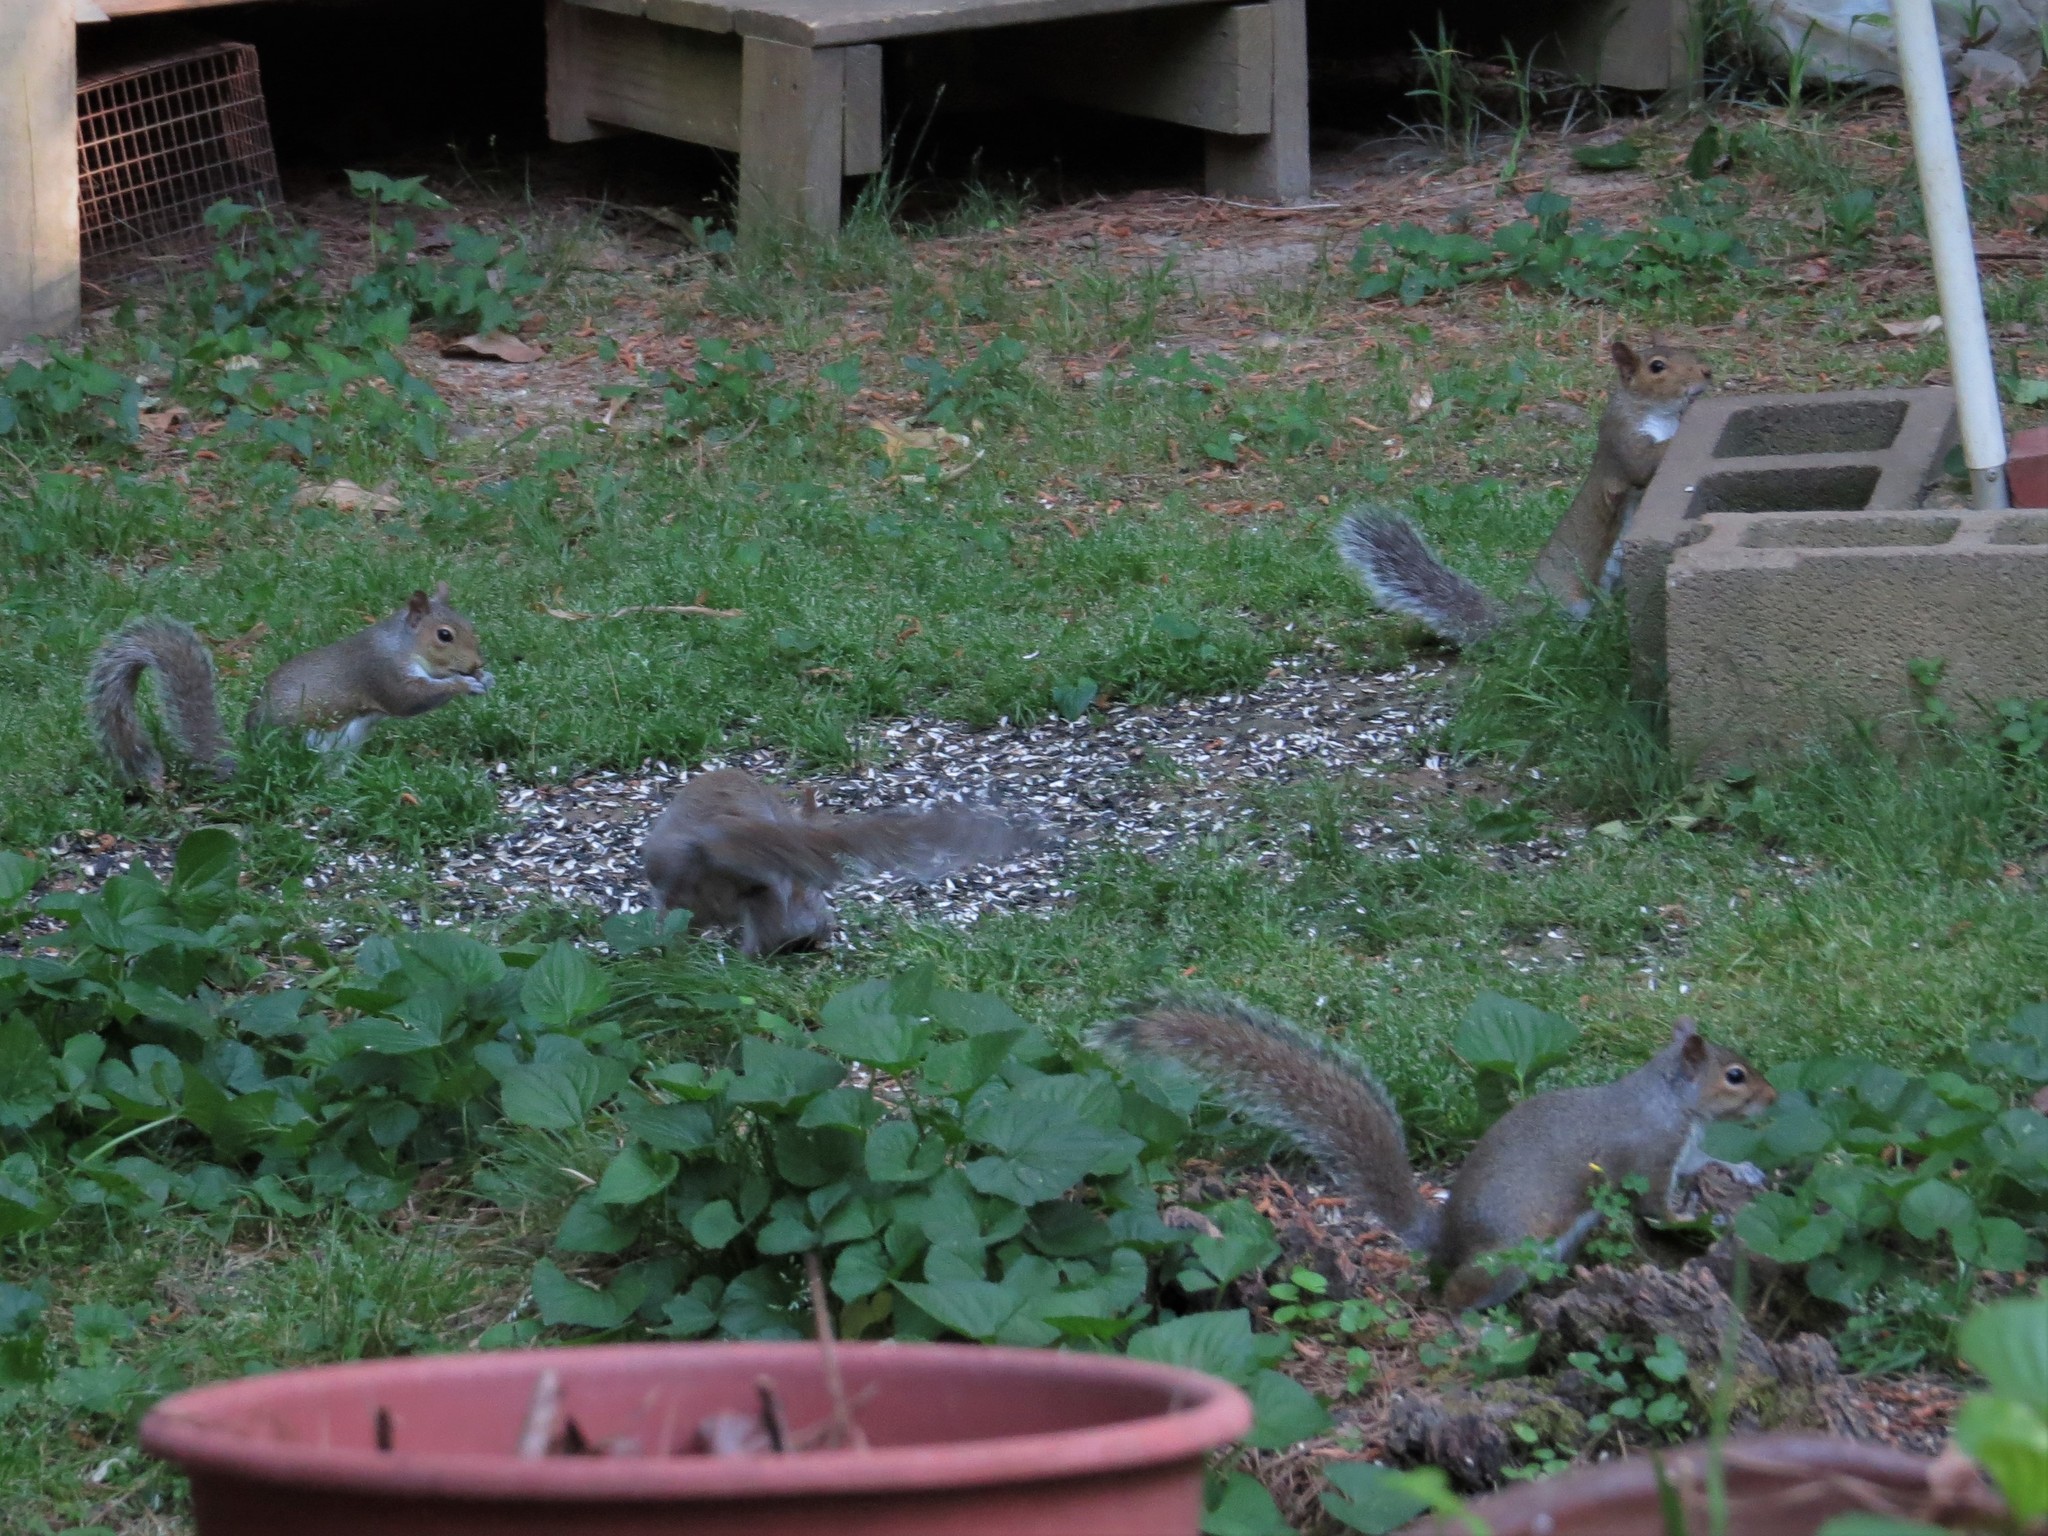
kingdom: Animalia
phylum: Chordata
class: Mammalia
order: Rodentia
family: Sciuridae
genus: Sciurus
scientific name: Sciurus carolinensis
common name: Eastern gray squirrel
